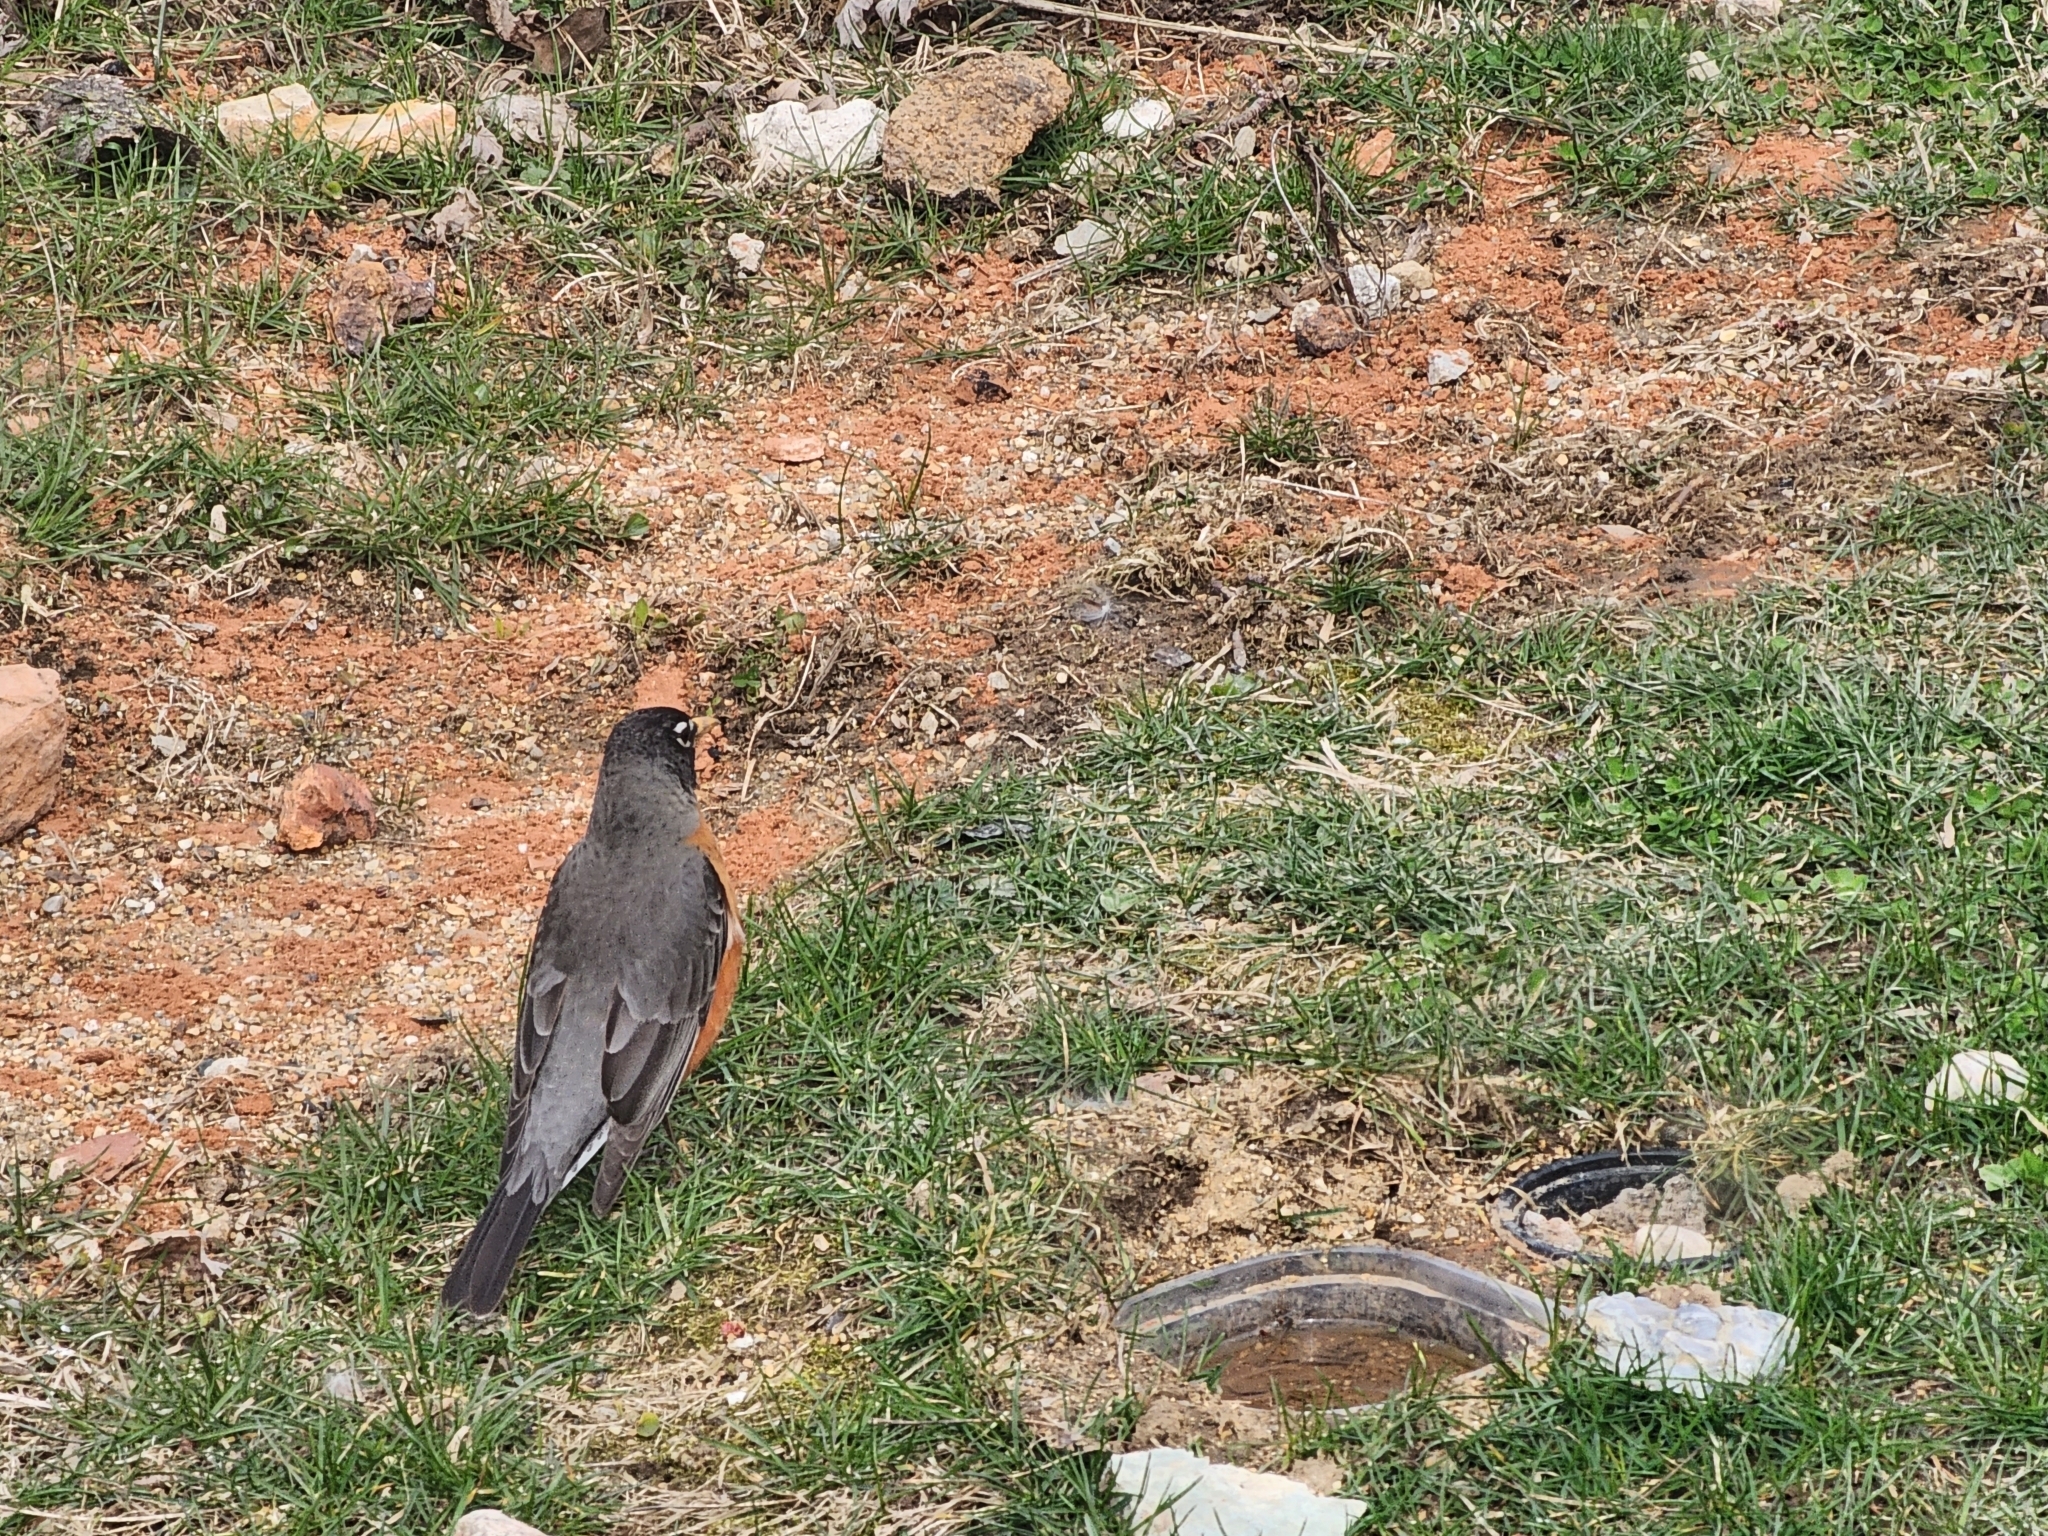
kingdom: Animalia
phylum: Chordata
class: Aves
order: Passeriformes
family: Turdidae
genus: Turdus
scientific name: Turdus migratorius
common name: American robin
